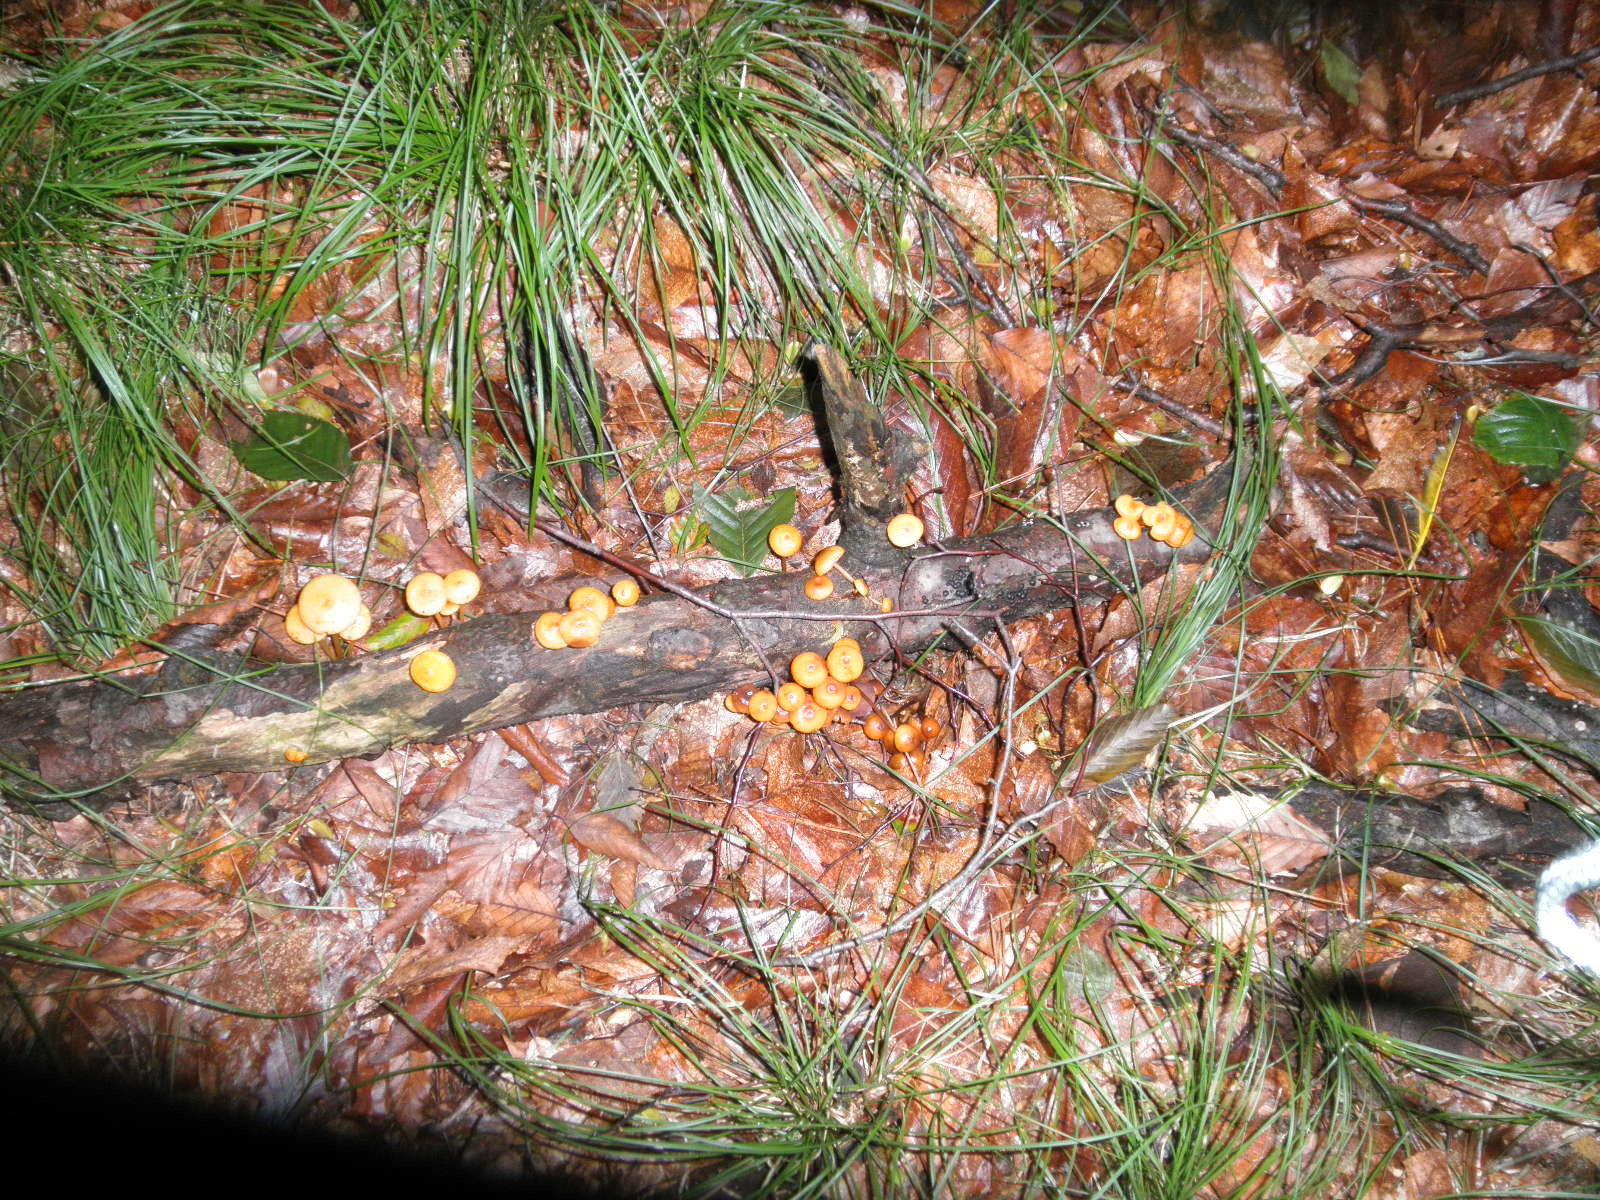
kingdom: Fungi
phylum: Basidiomycota
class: Agaricomycetes
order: Agaricales
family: Mycenaceae
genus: Mycena
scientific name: Mycena leaiana
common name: Orange mycena
